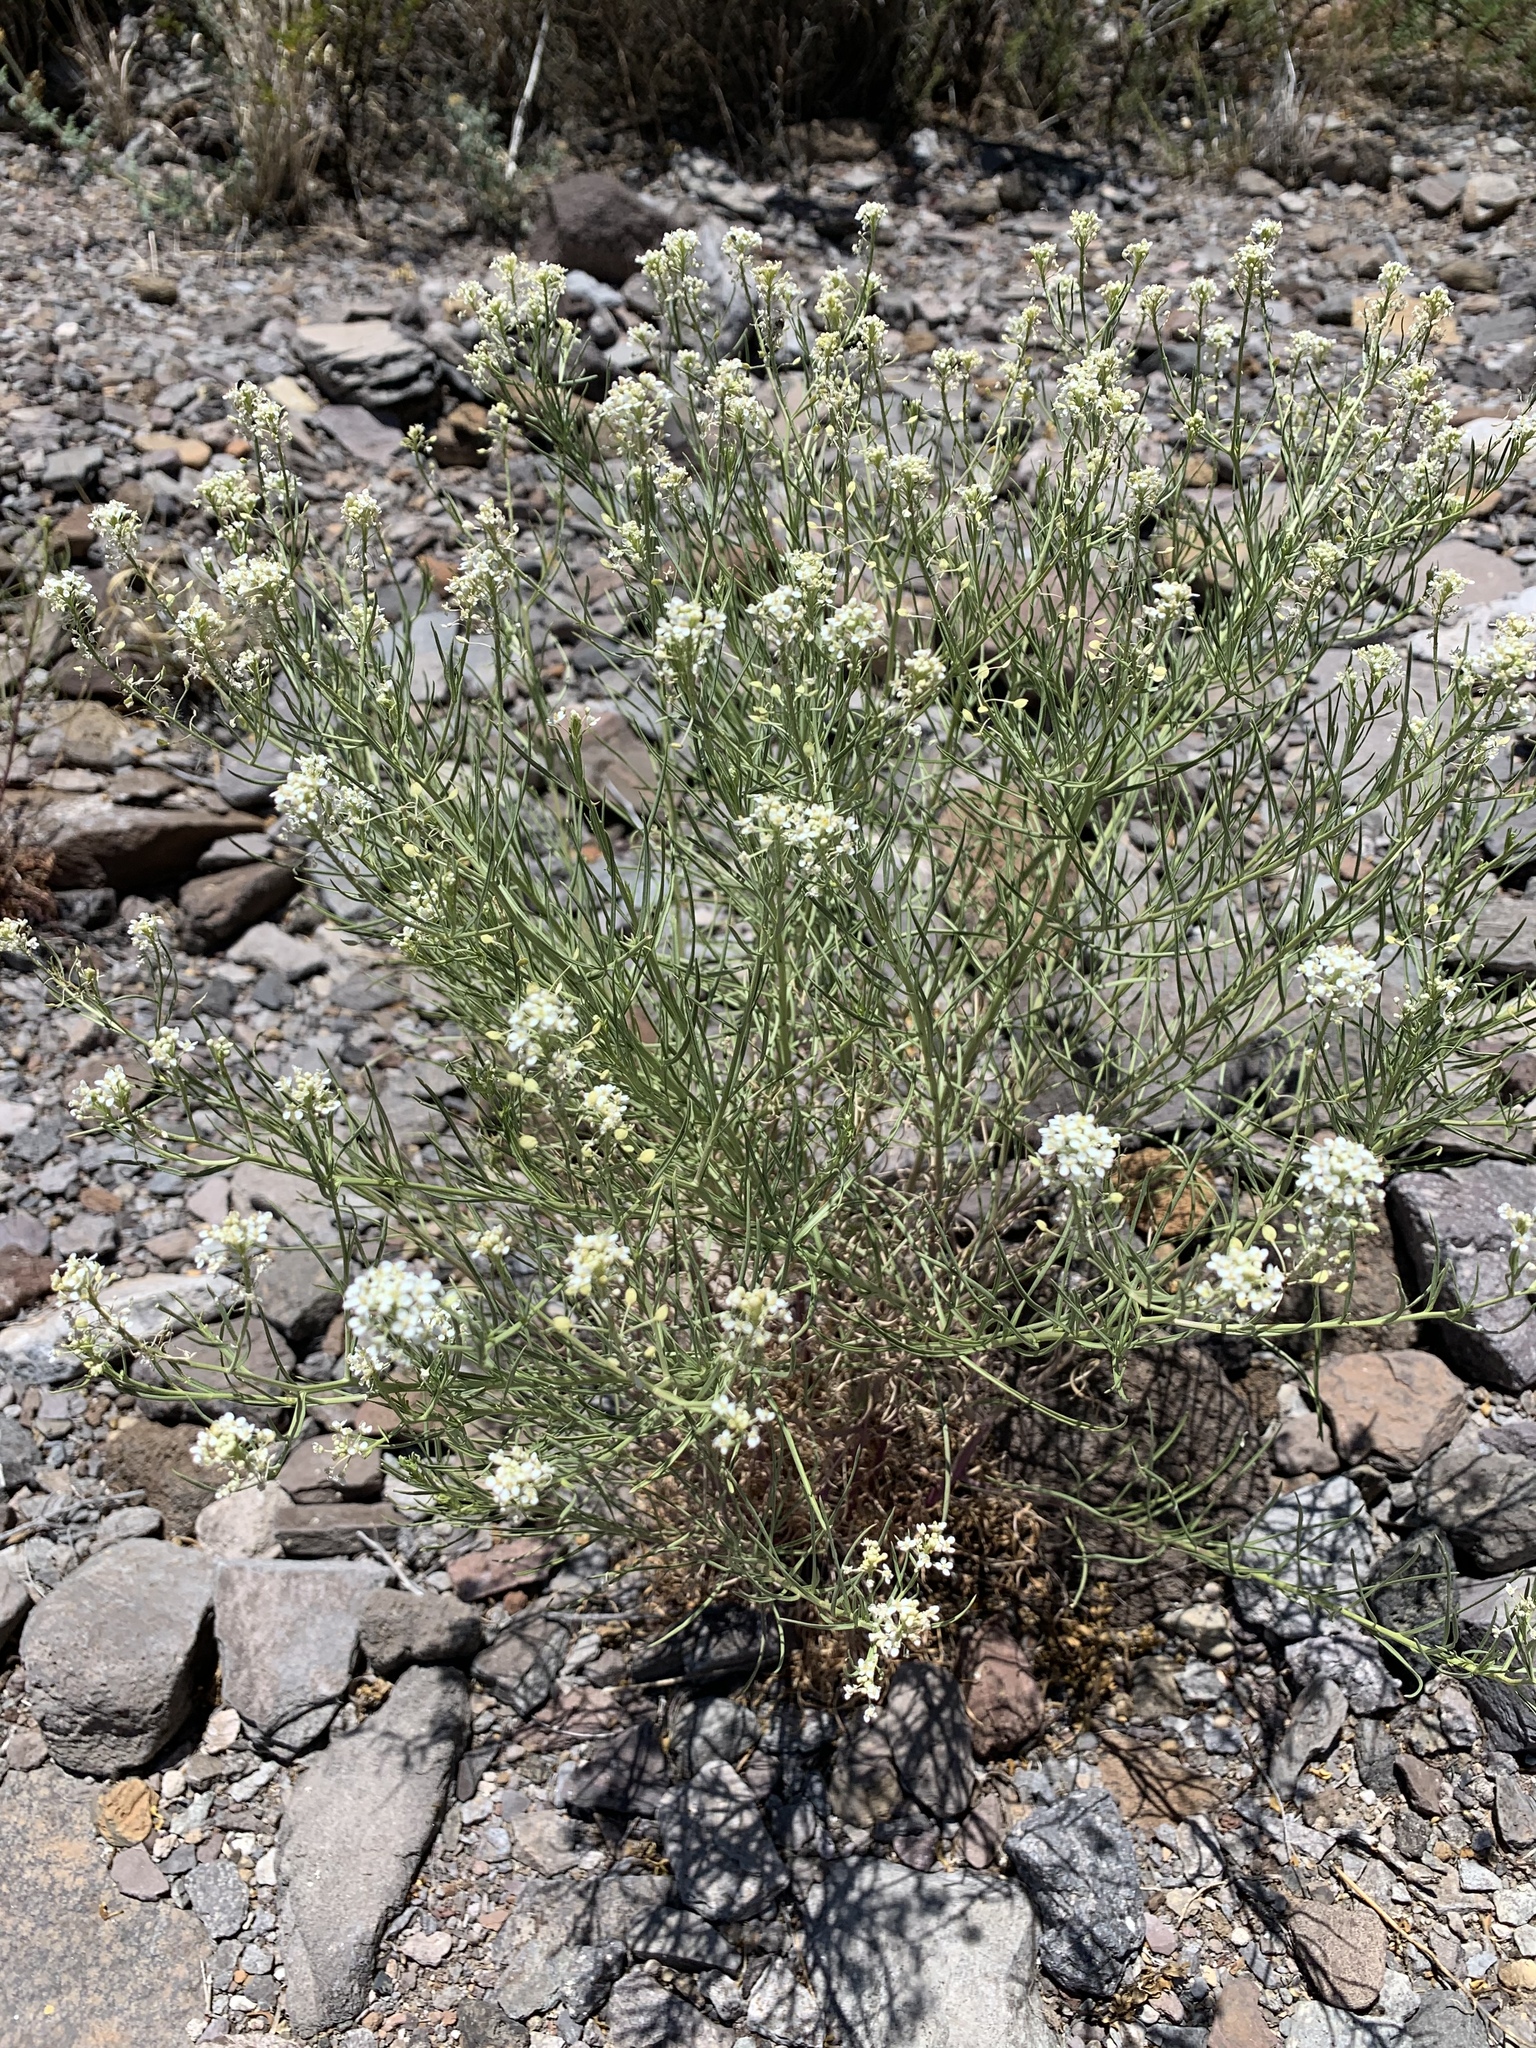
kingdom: Plantae
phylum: Tracheophyta
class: Magnoliopsida
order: Brassicales
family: Brassicaceae
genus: Lepidium
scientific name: Lepidium fremontii
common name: Fremont's pepperwort
